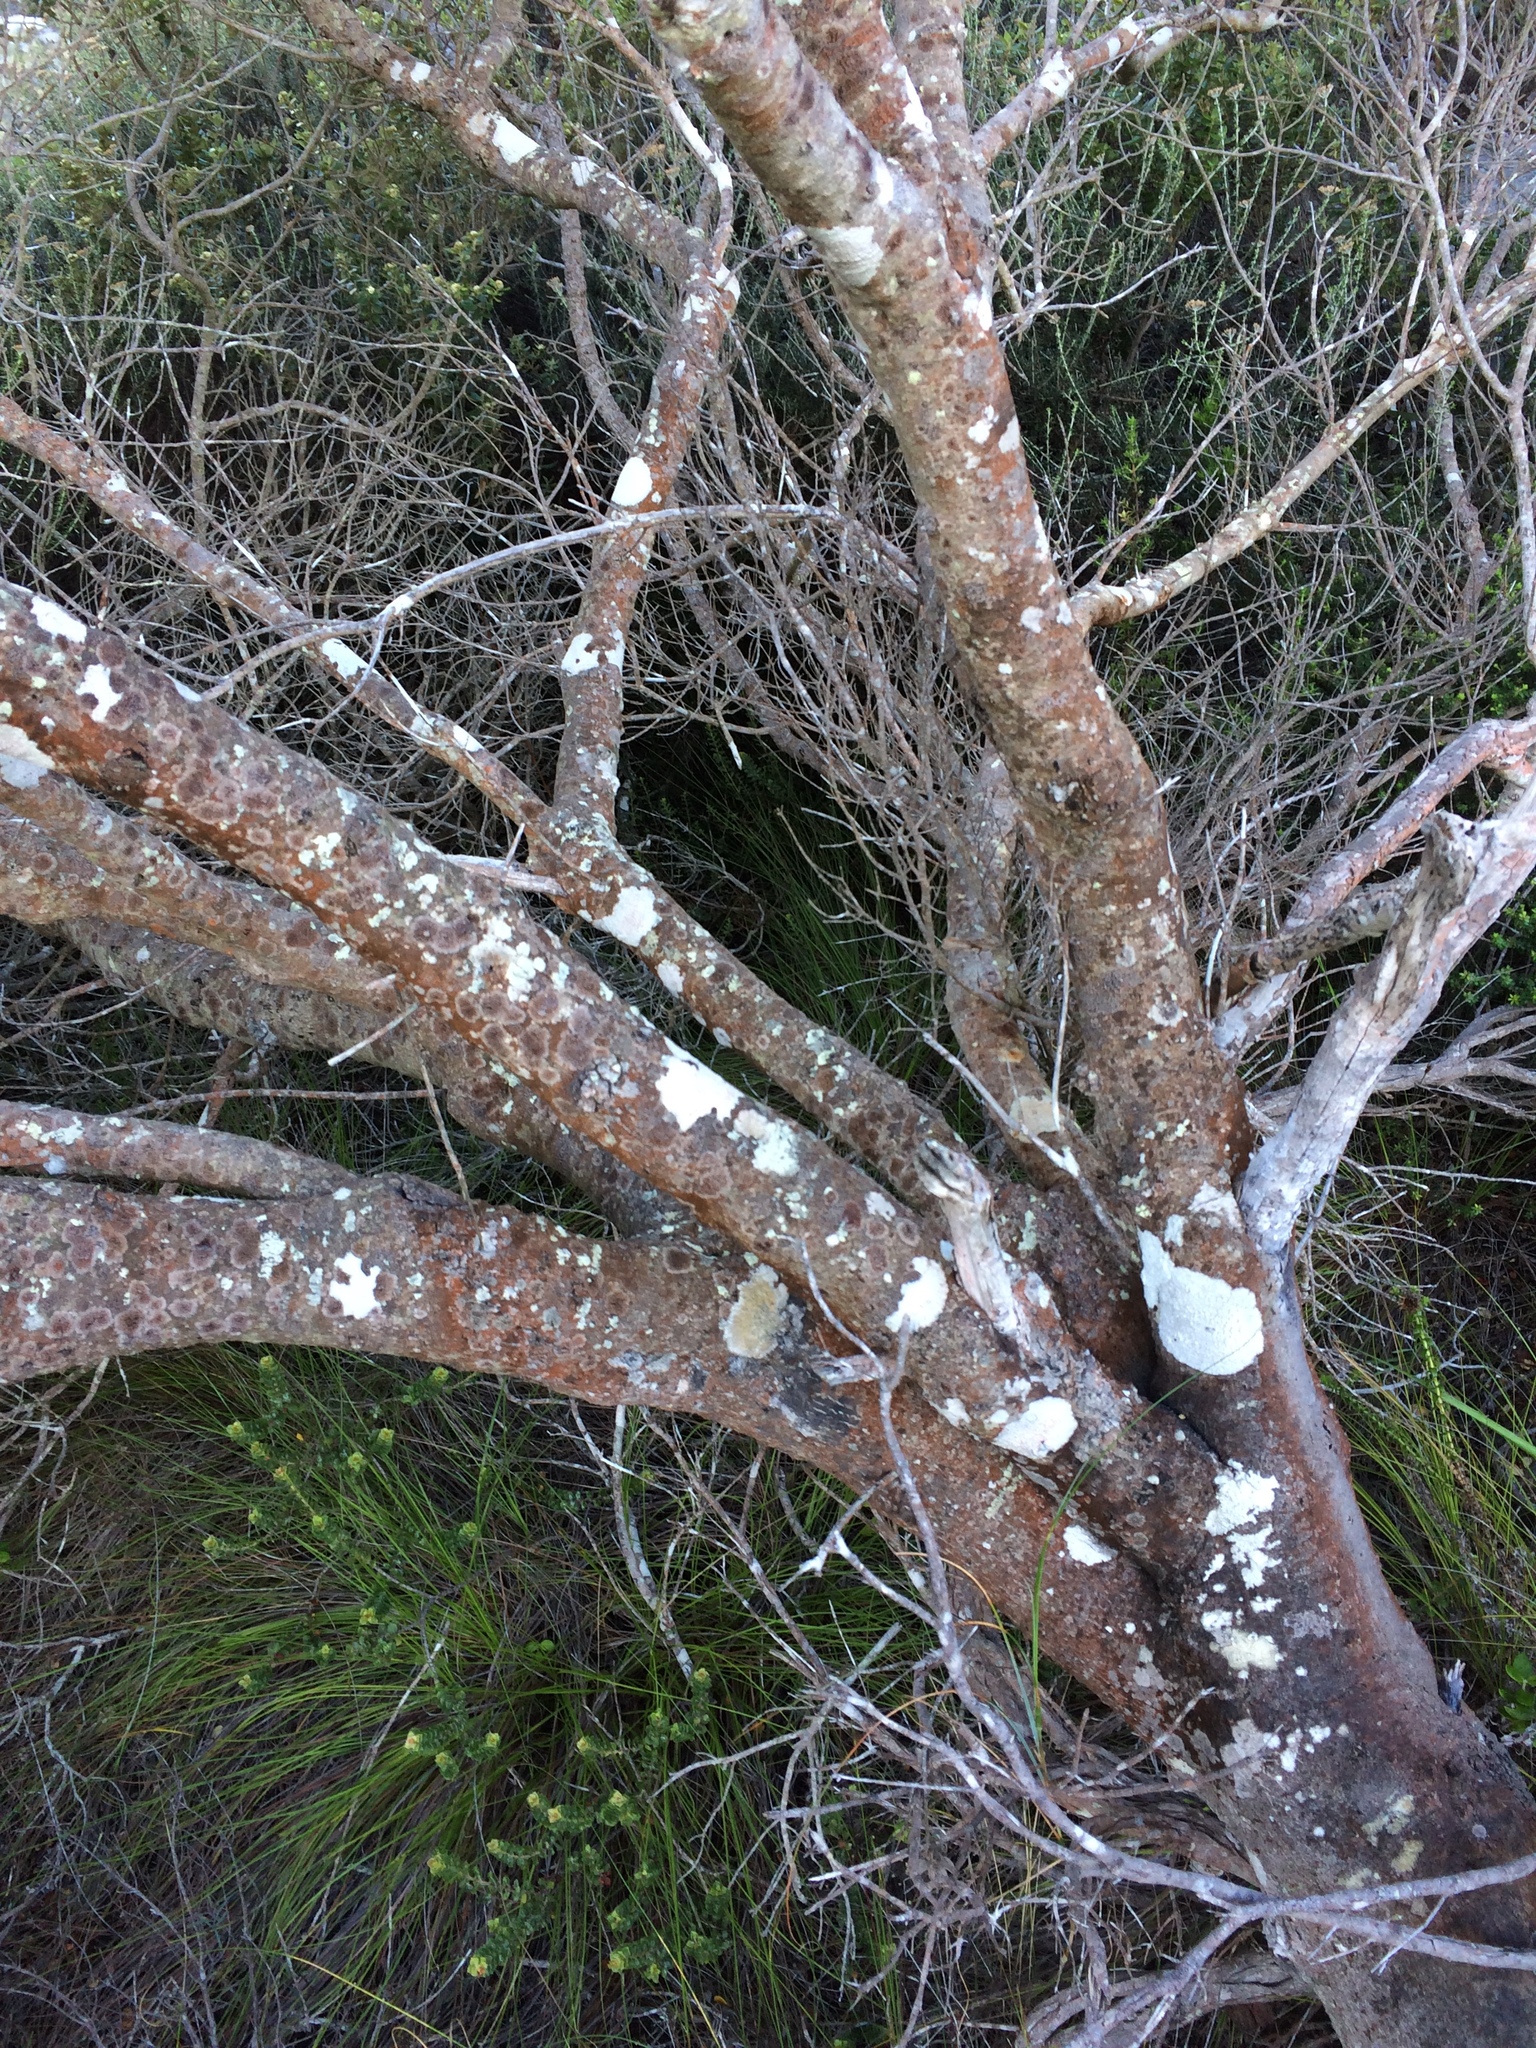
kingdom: Plantae
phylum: Tracheophyta
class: Magnoliopsida
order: Rosales
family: Rhamnaceae
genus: Phylica
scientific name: Phylica buxifolia
